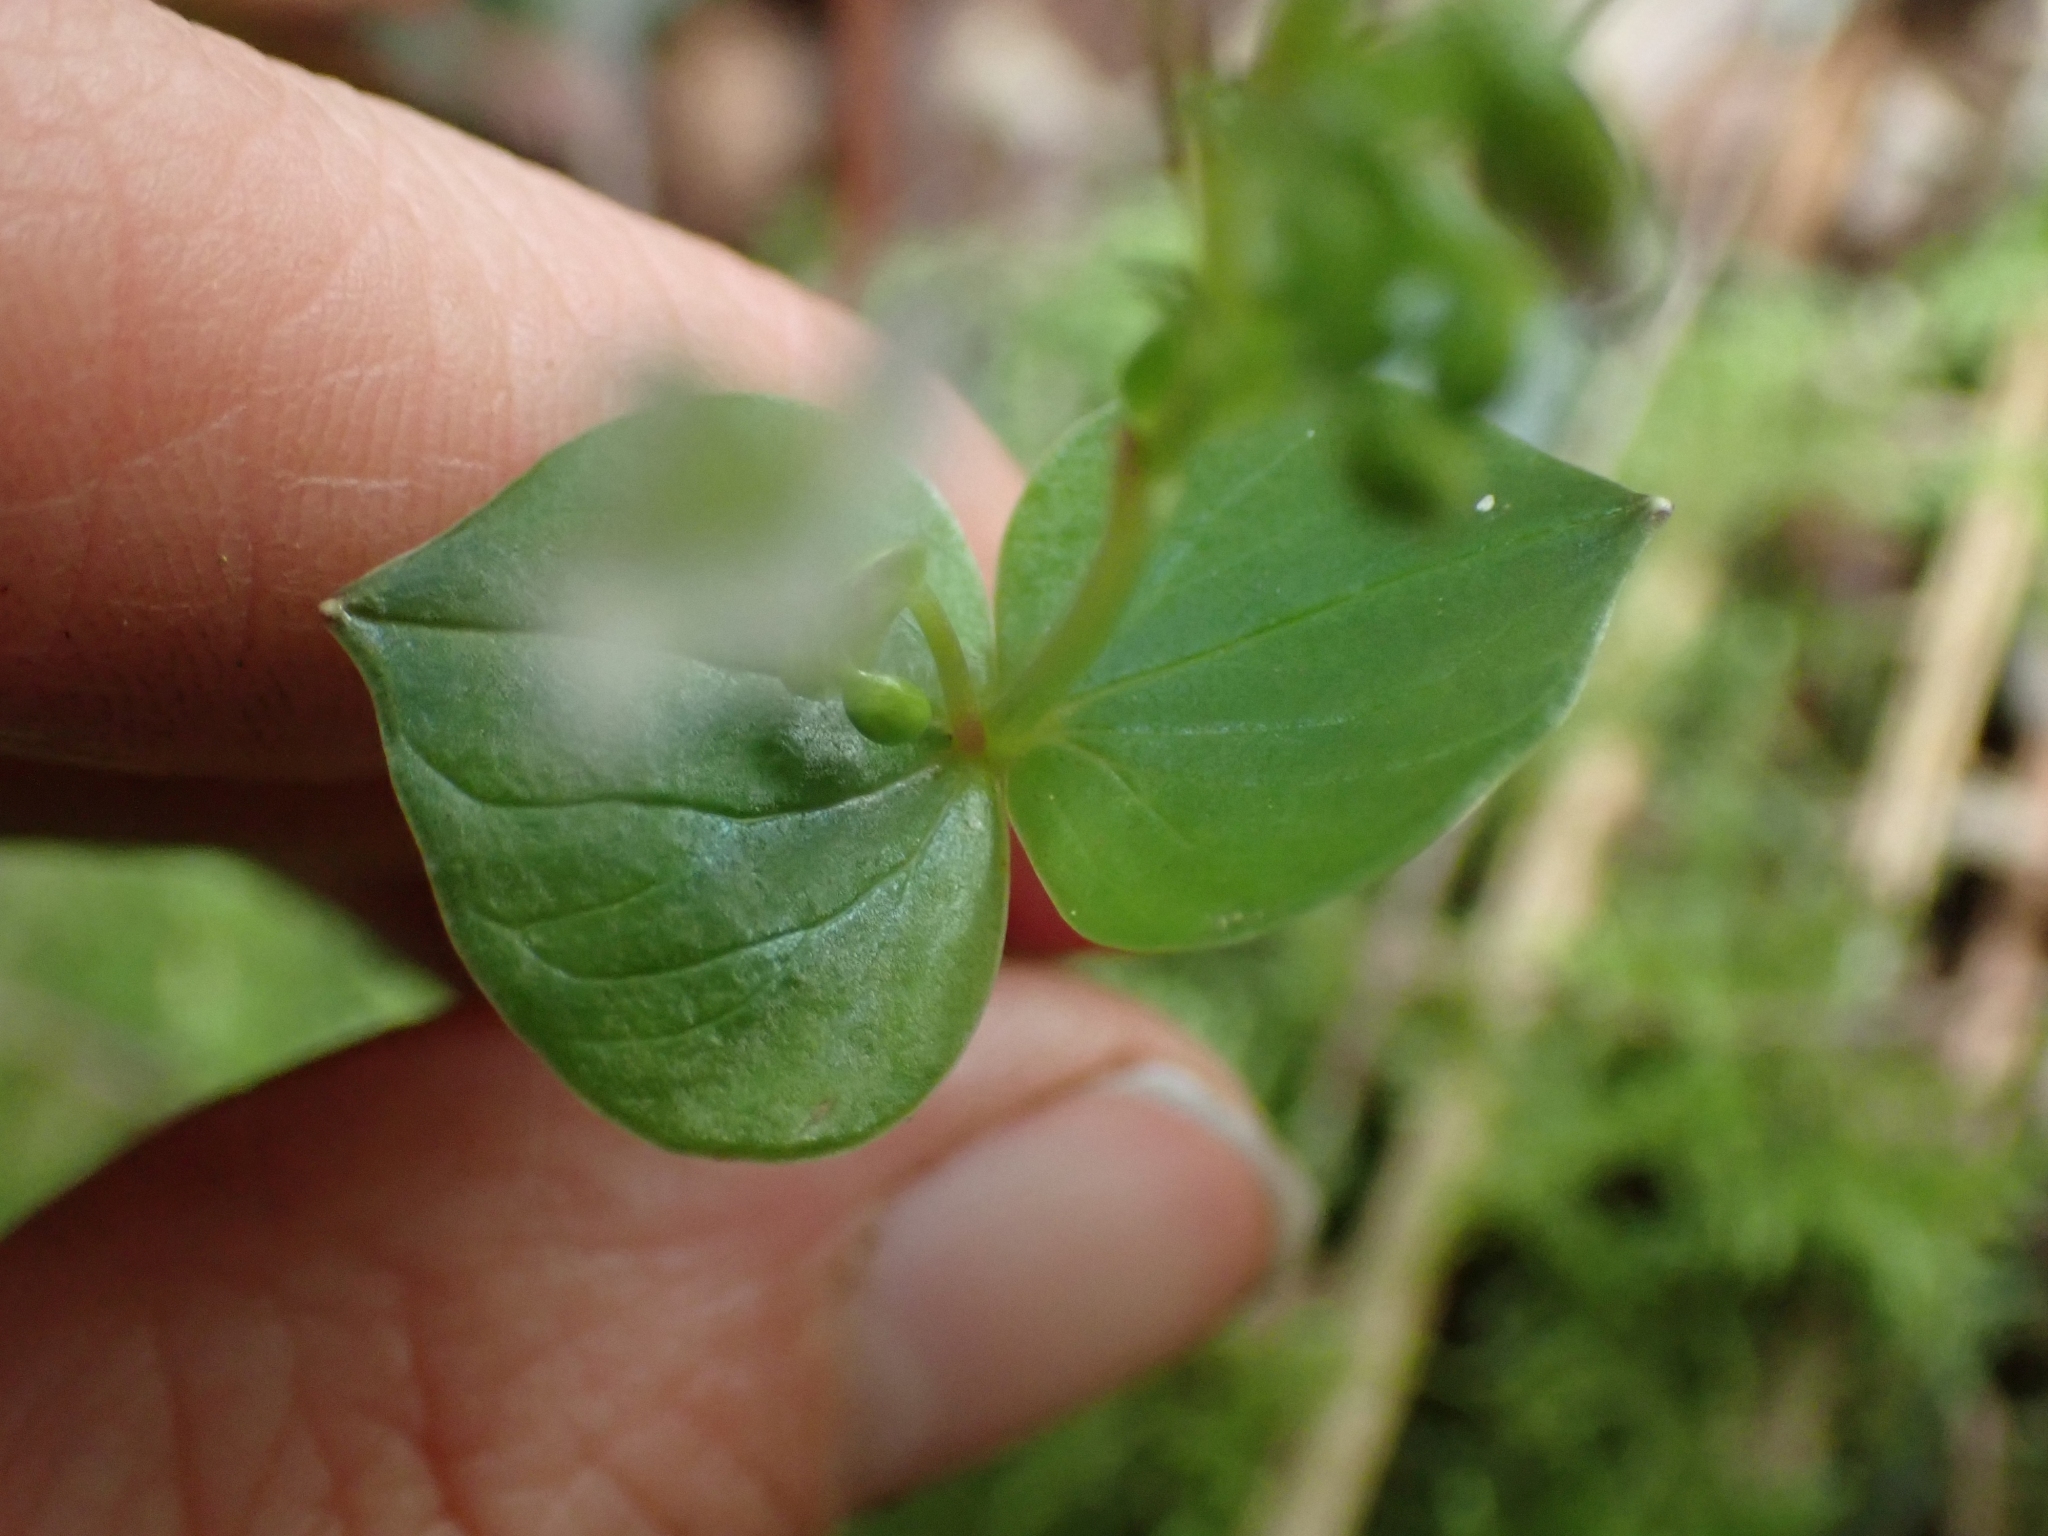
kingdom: Plantae
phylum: Tracheophyta
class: Magnoliopsida
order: Caryophyllales
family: Montiaceae
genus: Claytonia
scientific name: Claytonia sibirica
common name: Pink purslane
